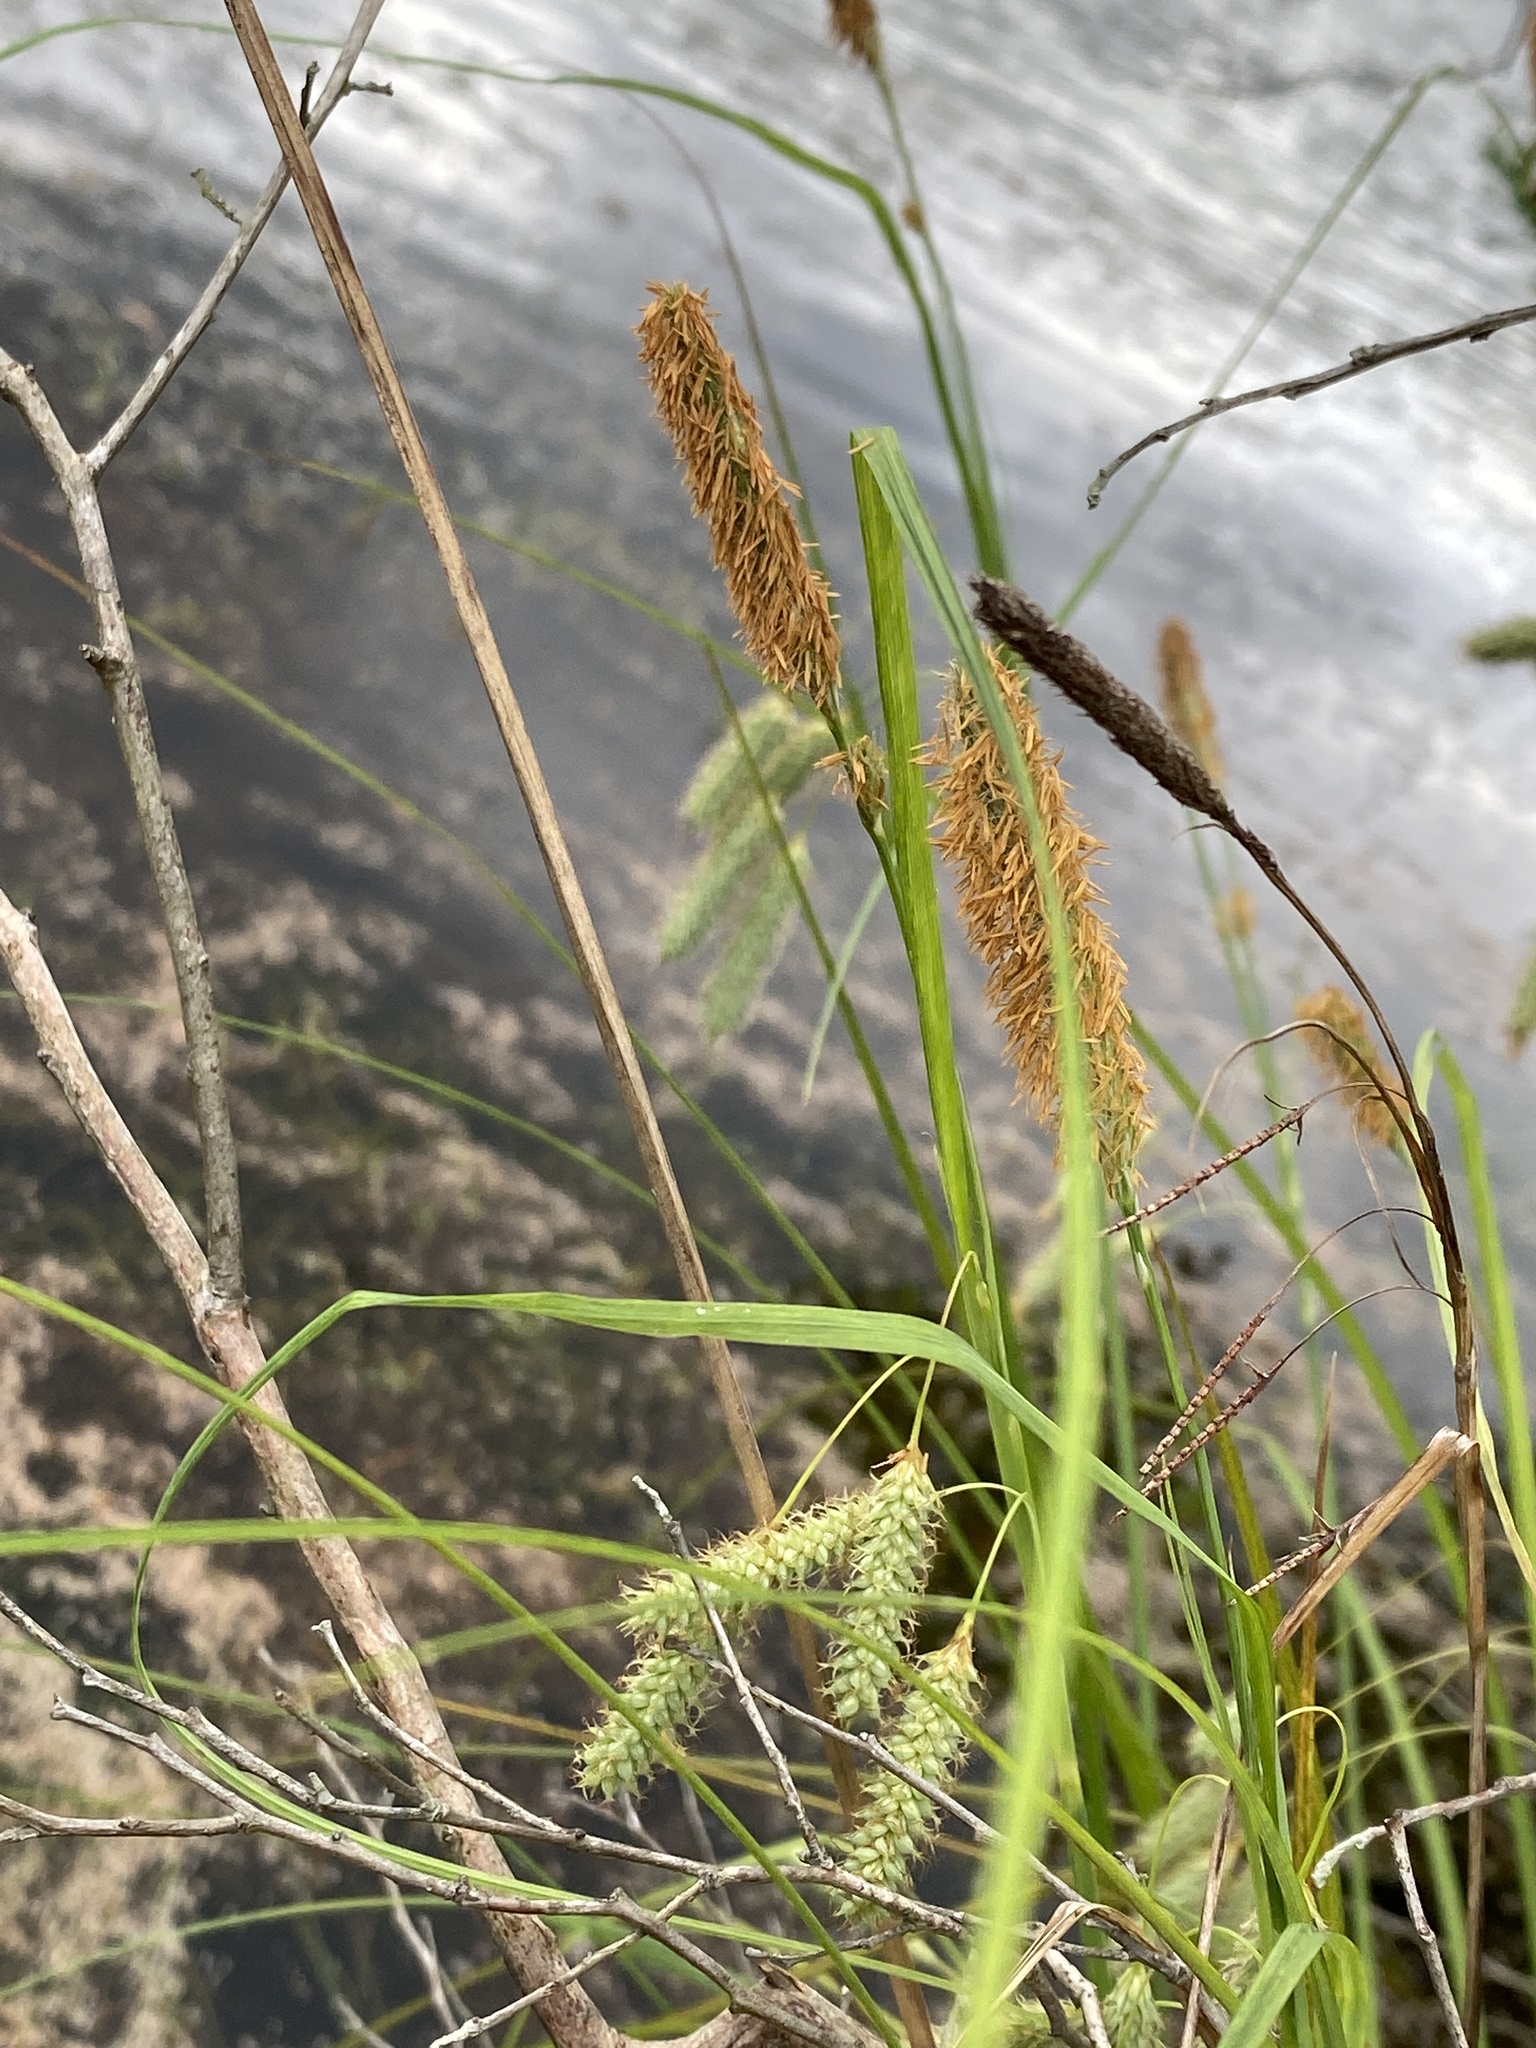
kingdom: Plantae
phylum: Tracheophyta
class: Liliopsida
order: Poales
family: Cyperaceae
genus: Carex
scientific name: Carex glaucescens
